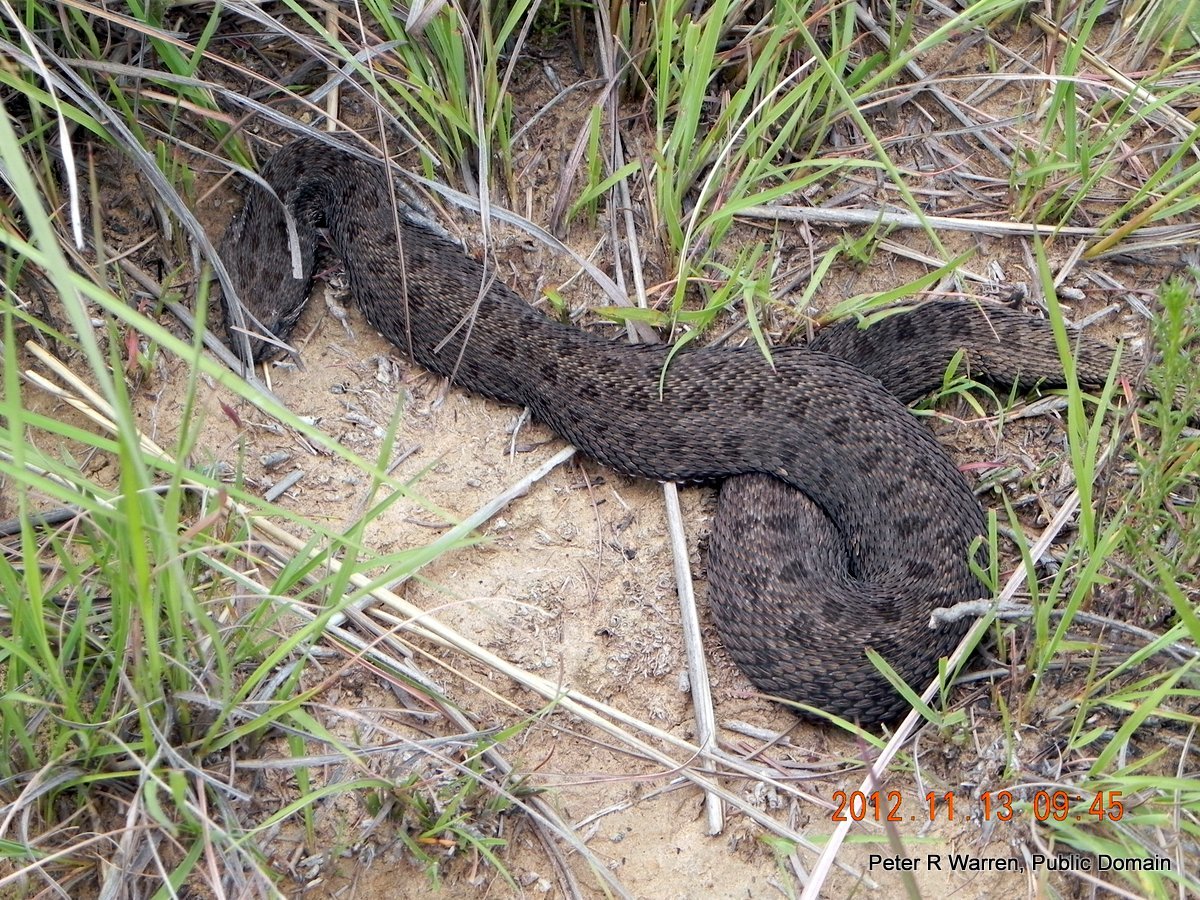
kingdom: Animalia
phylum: Chordata
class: Squamata
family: Viperidae
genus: Bitis
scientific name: Bitis atropos
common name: Mountain adder
